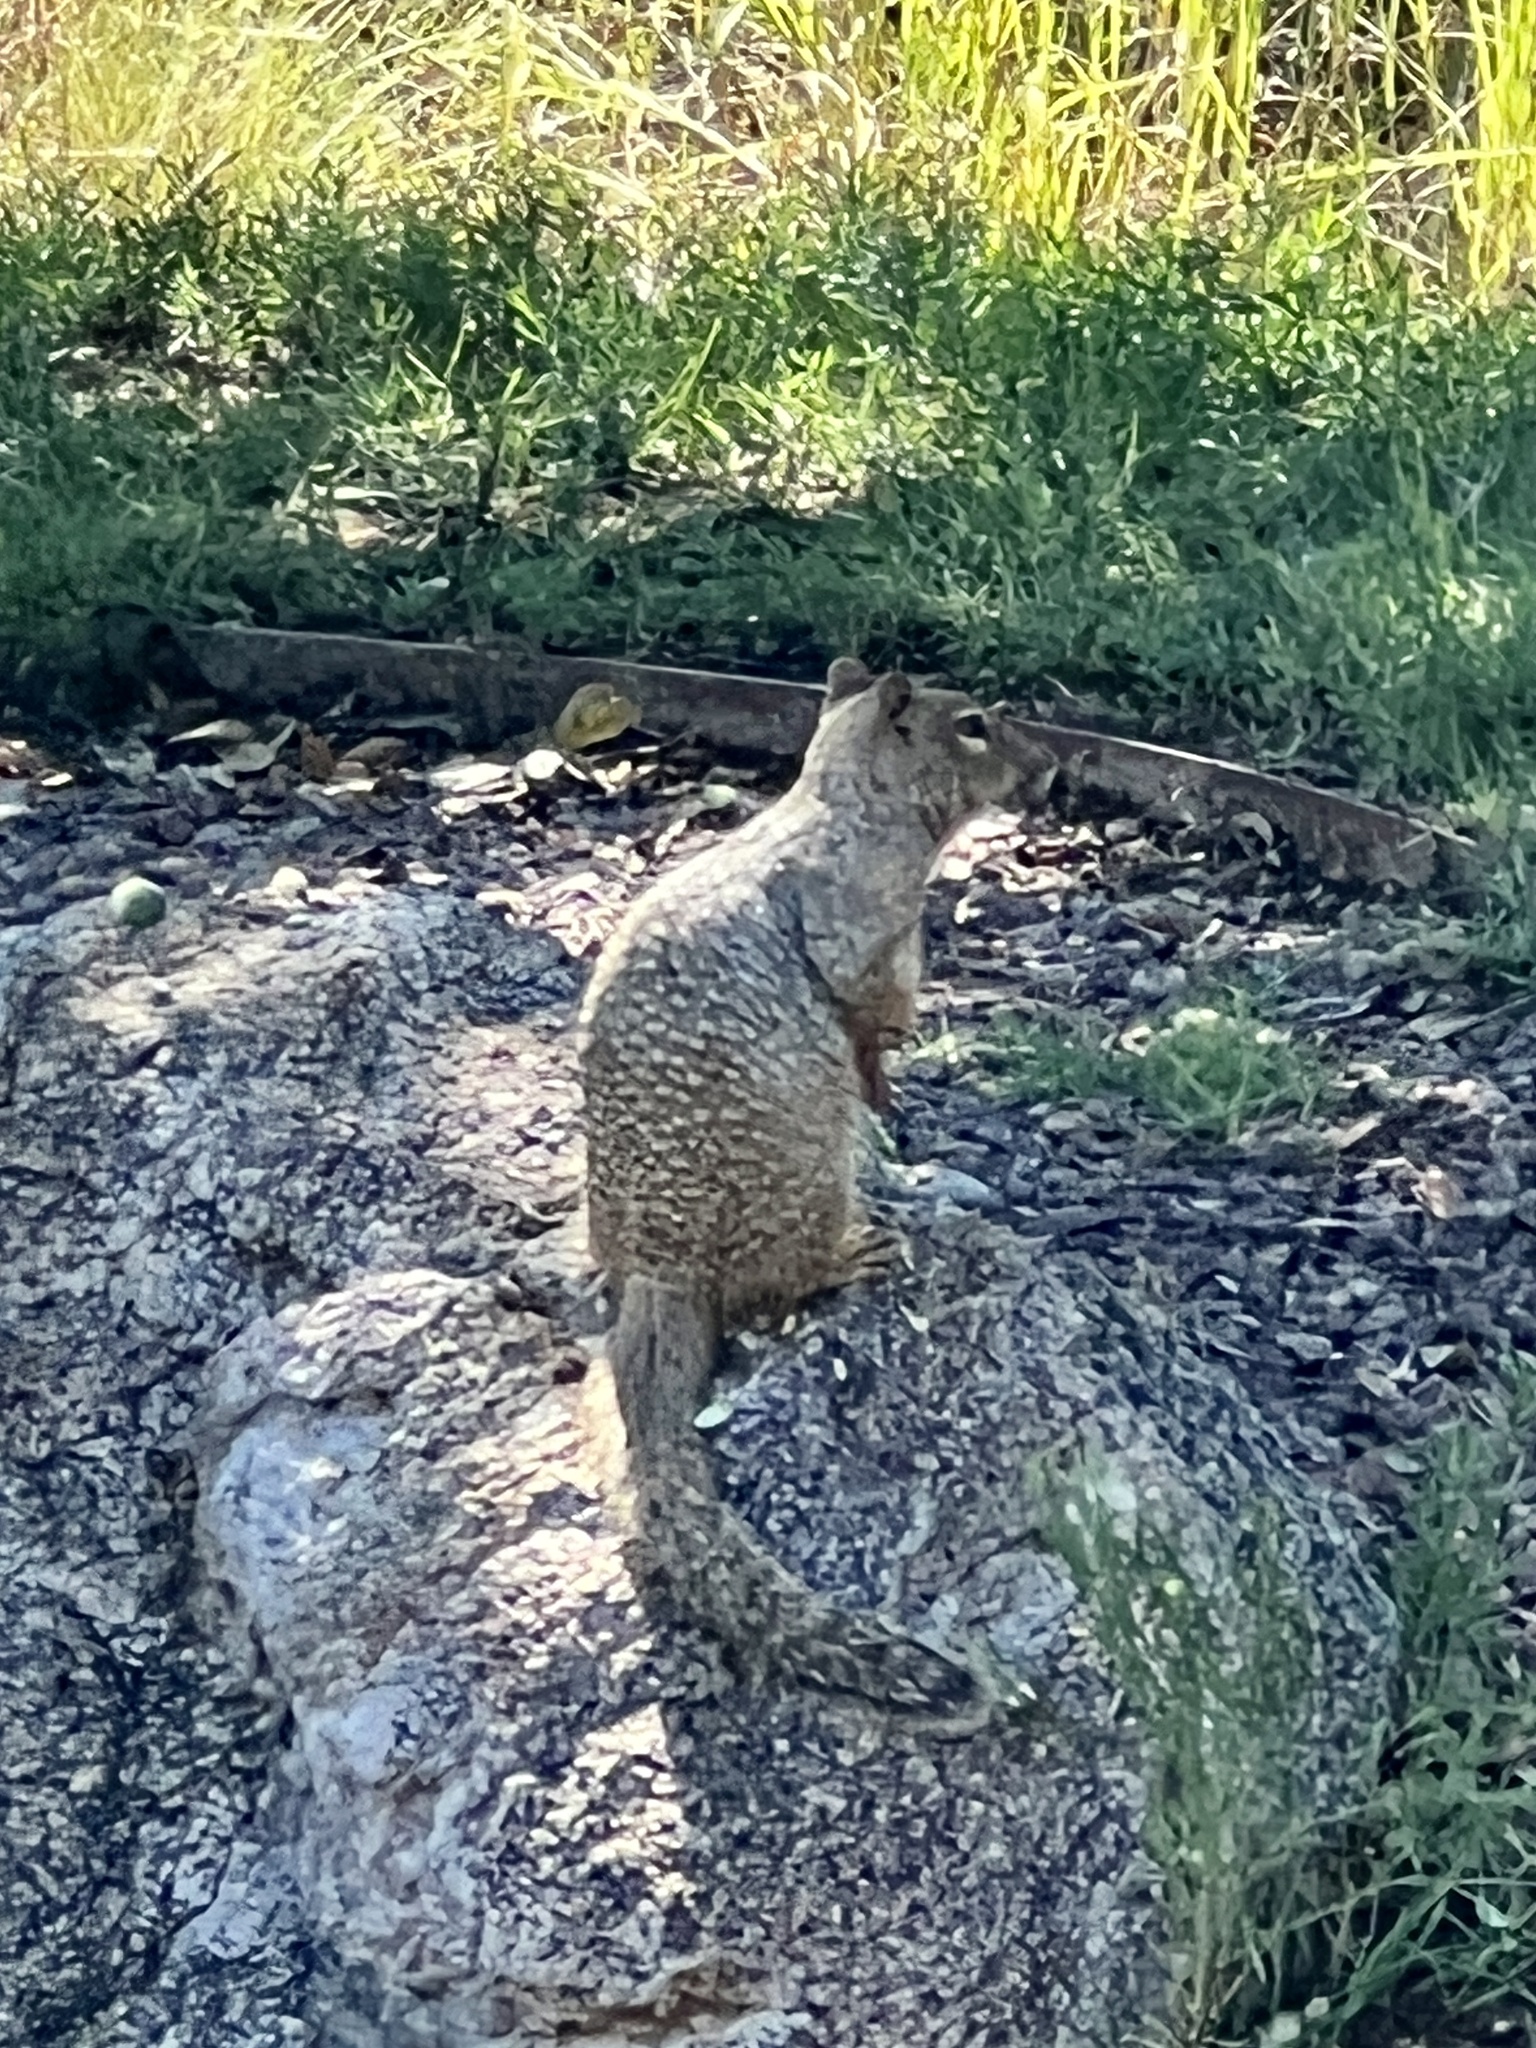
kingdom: Animalia
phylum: Chordata
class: Mammalia
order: Rodentia
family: Sciuridae
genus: Otospermophilus
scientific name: Otospermophilus variegatus
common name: Rock squirrel
